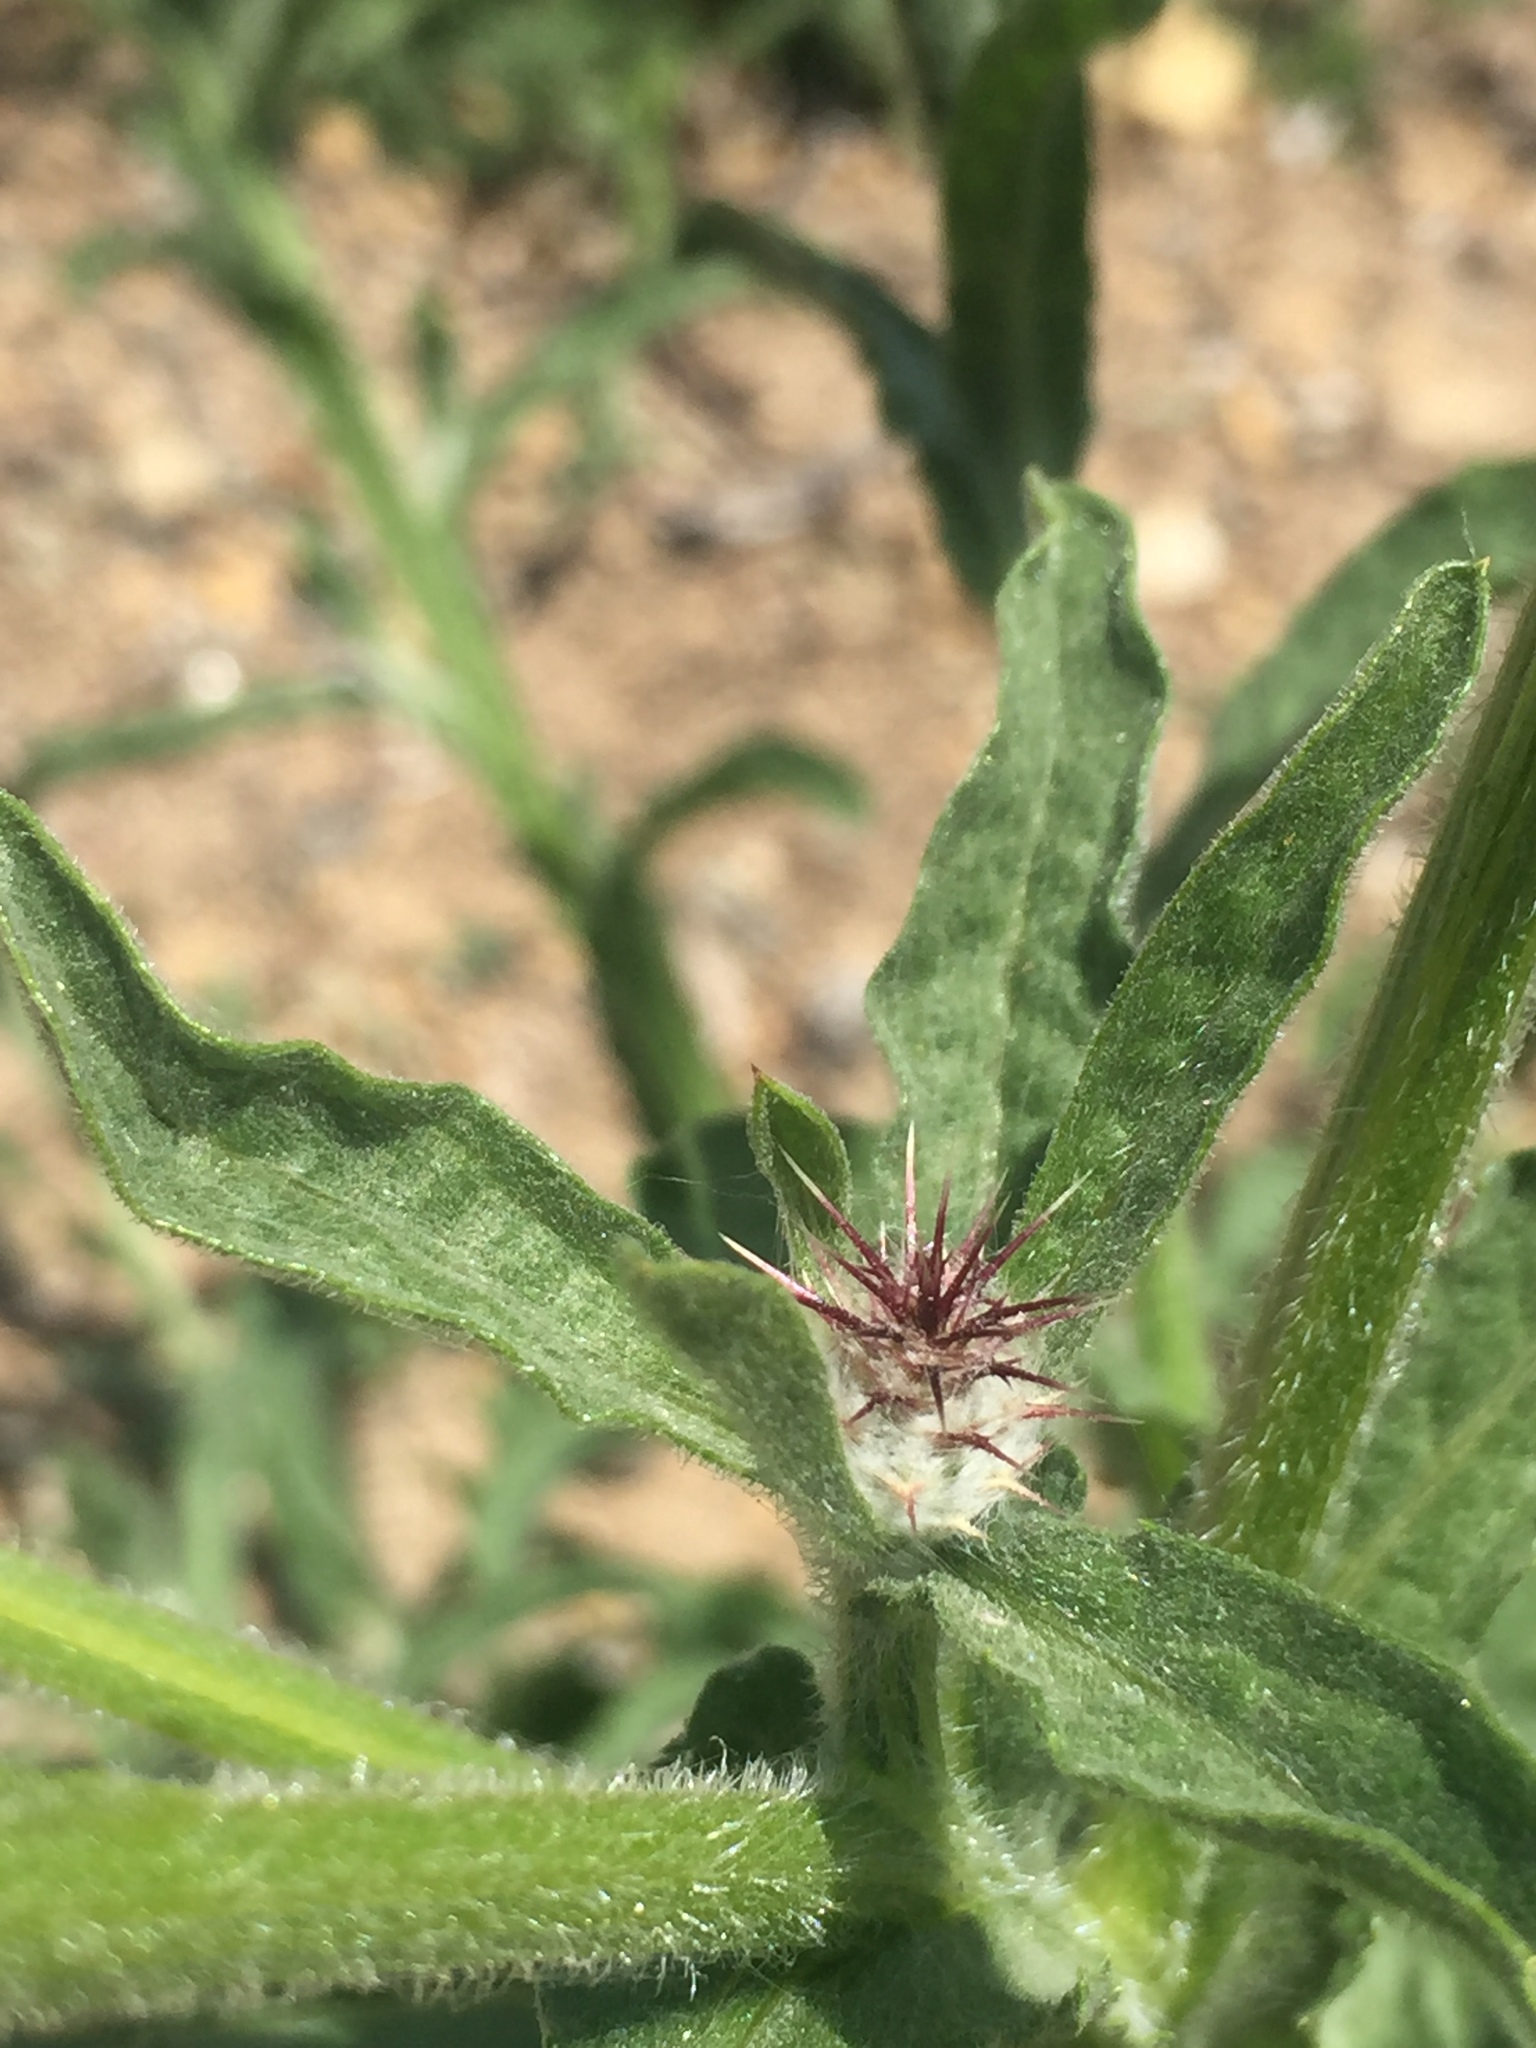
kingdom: Plantae
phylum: Tracheophyta
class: Magnoliopsida
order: Asterales
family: Asteraceae
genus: Centaurea
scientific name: Centaurea melitensis
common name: Maltese star-thistle
